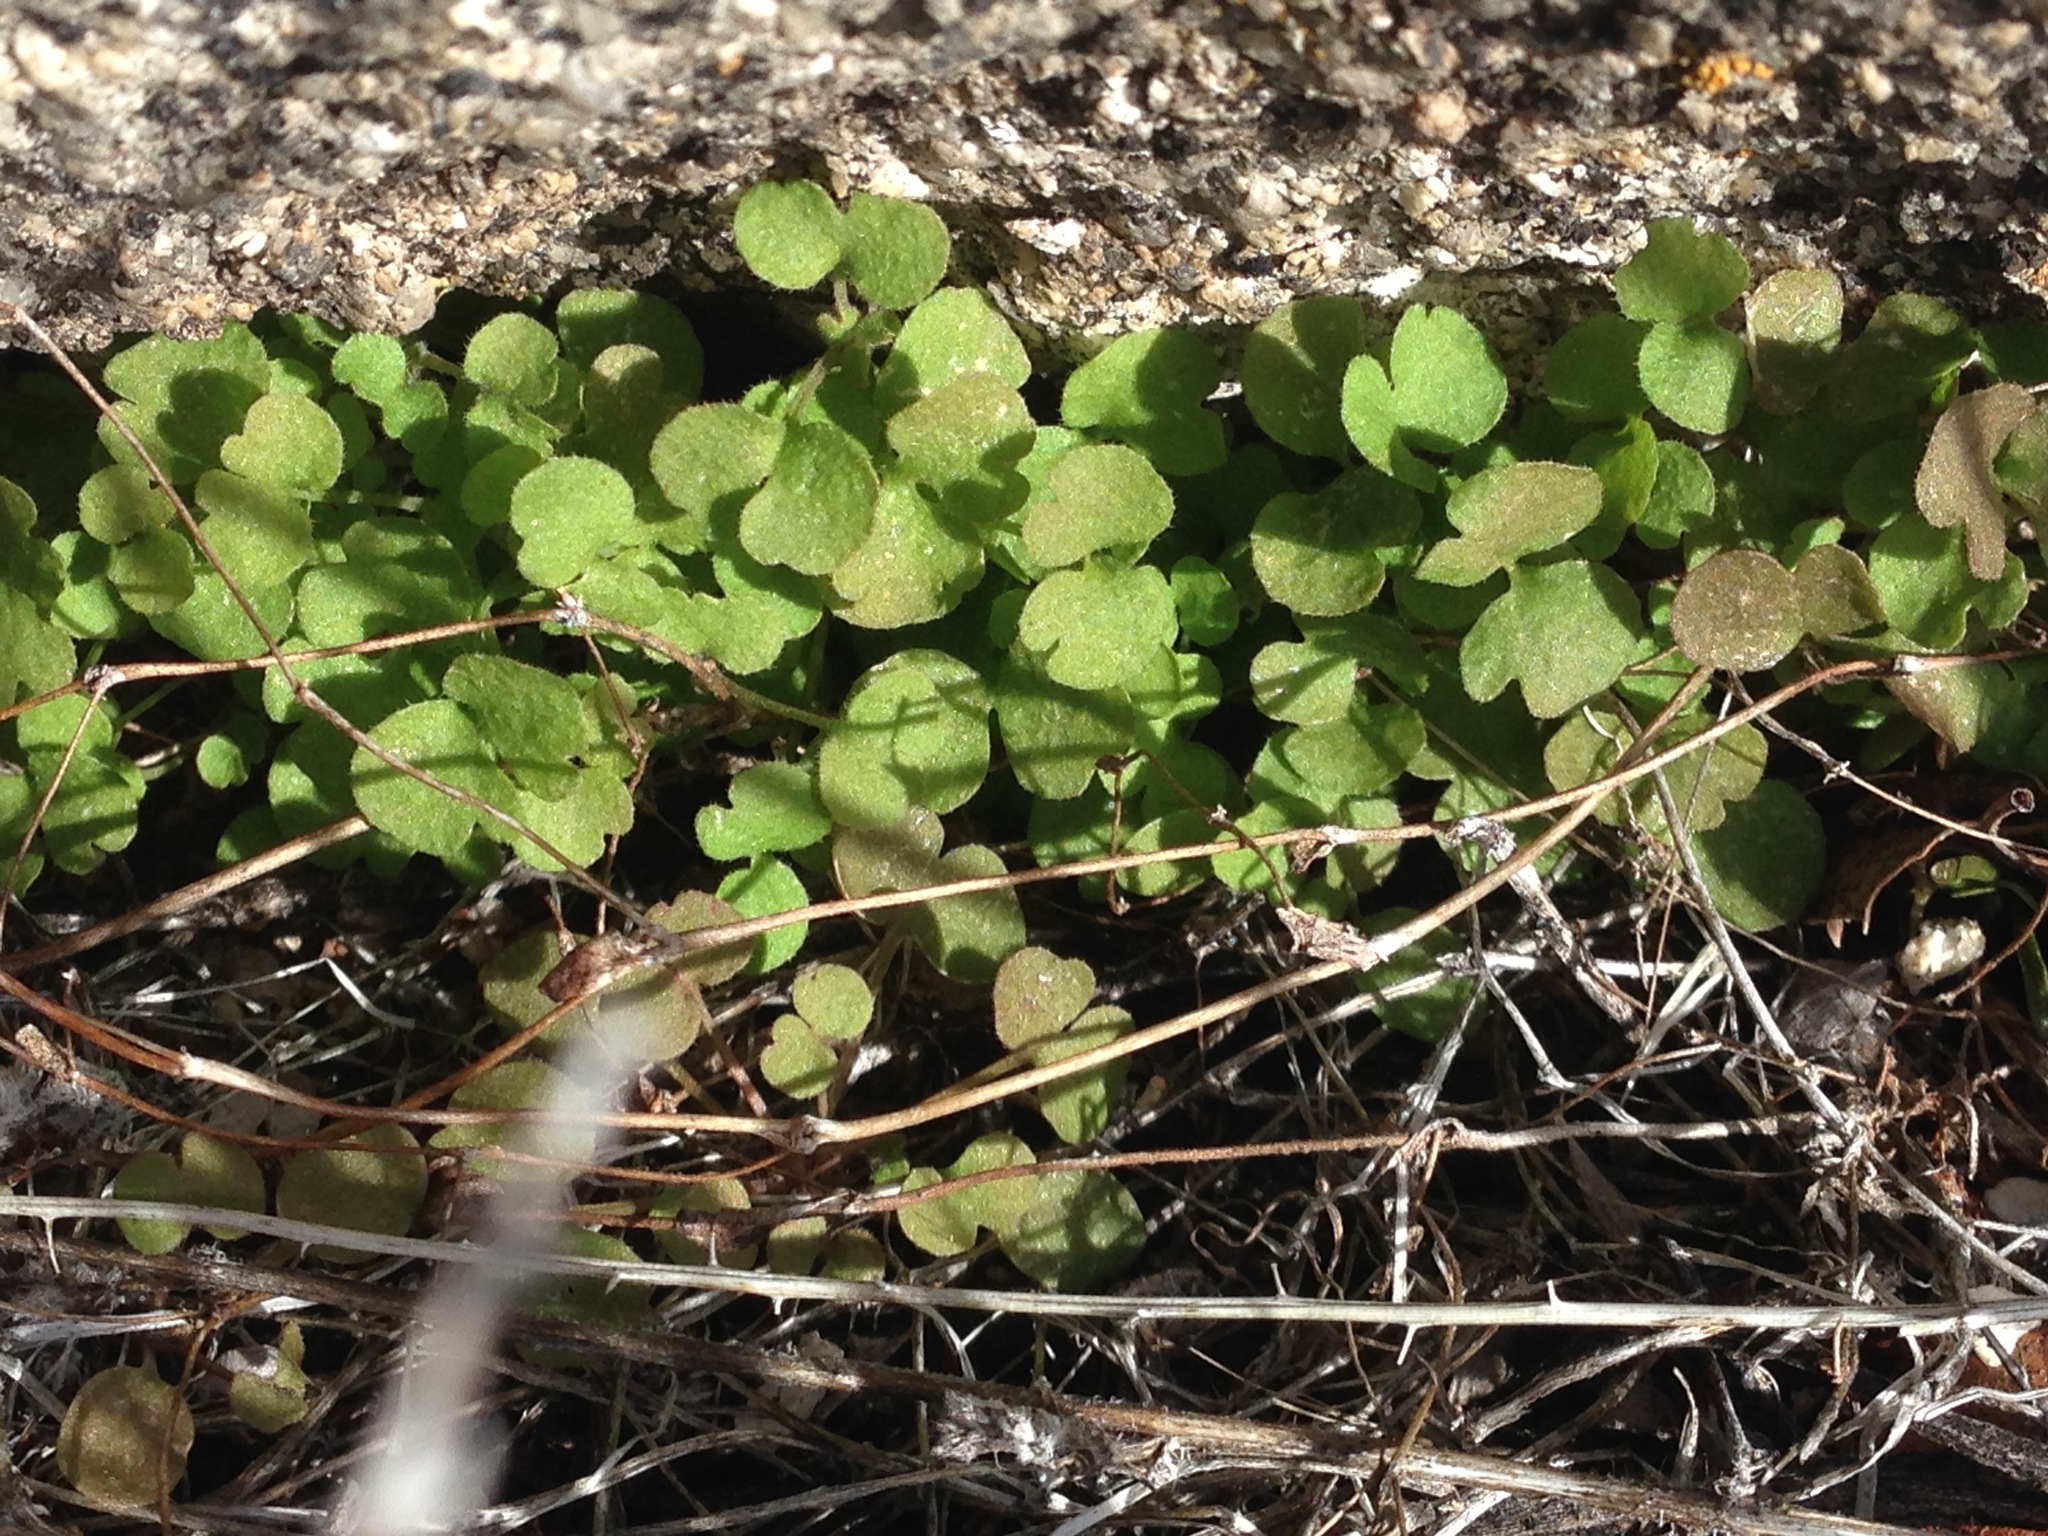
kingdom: Plantae
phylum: Tracheophyta
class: Magnoliopsida
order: Caryophyllales
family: Polygonaceae
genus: Pterostegia
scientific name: Pterostegia drymarioides
